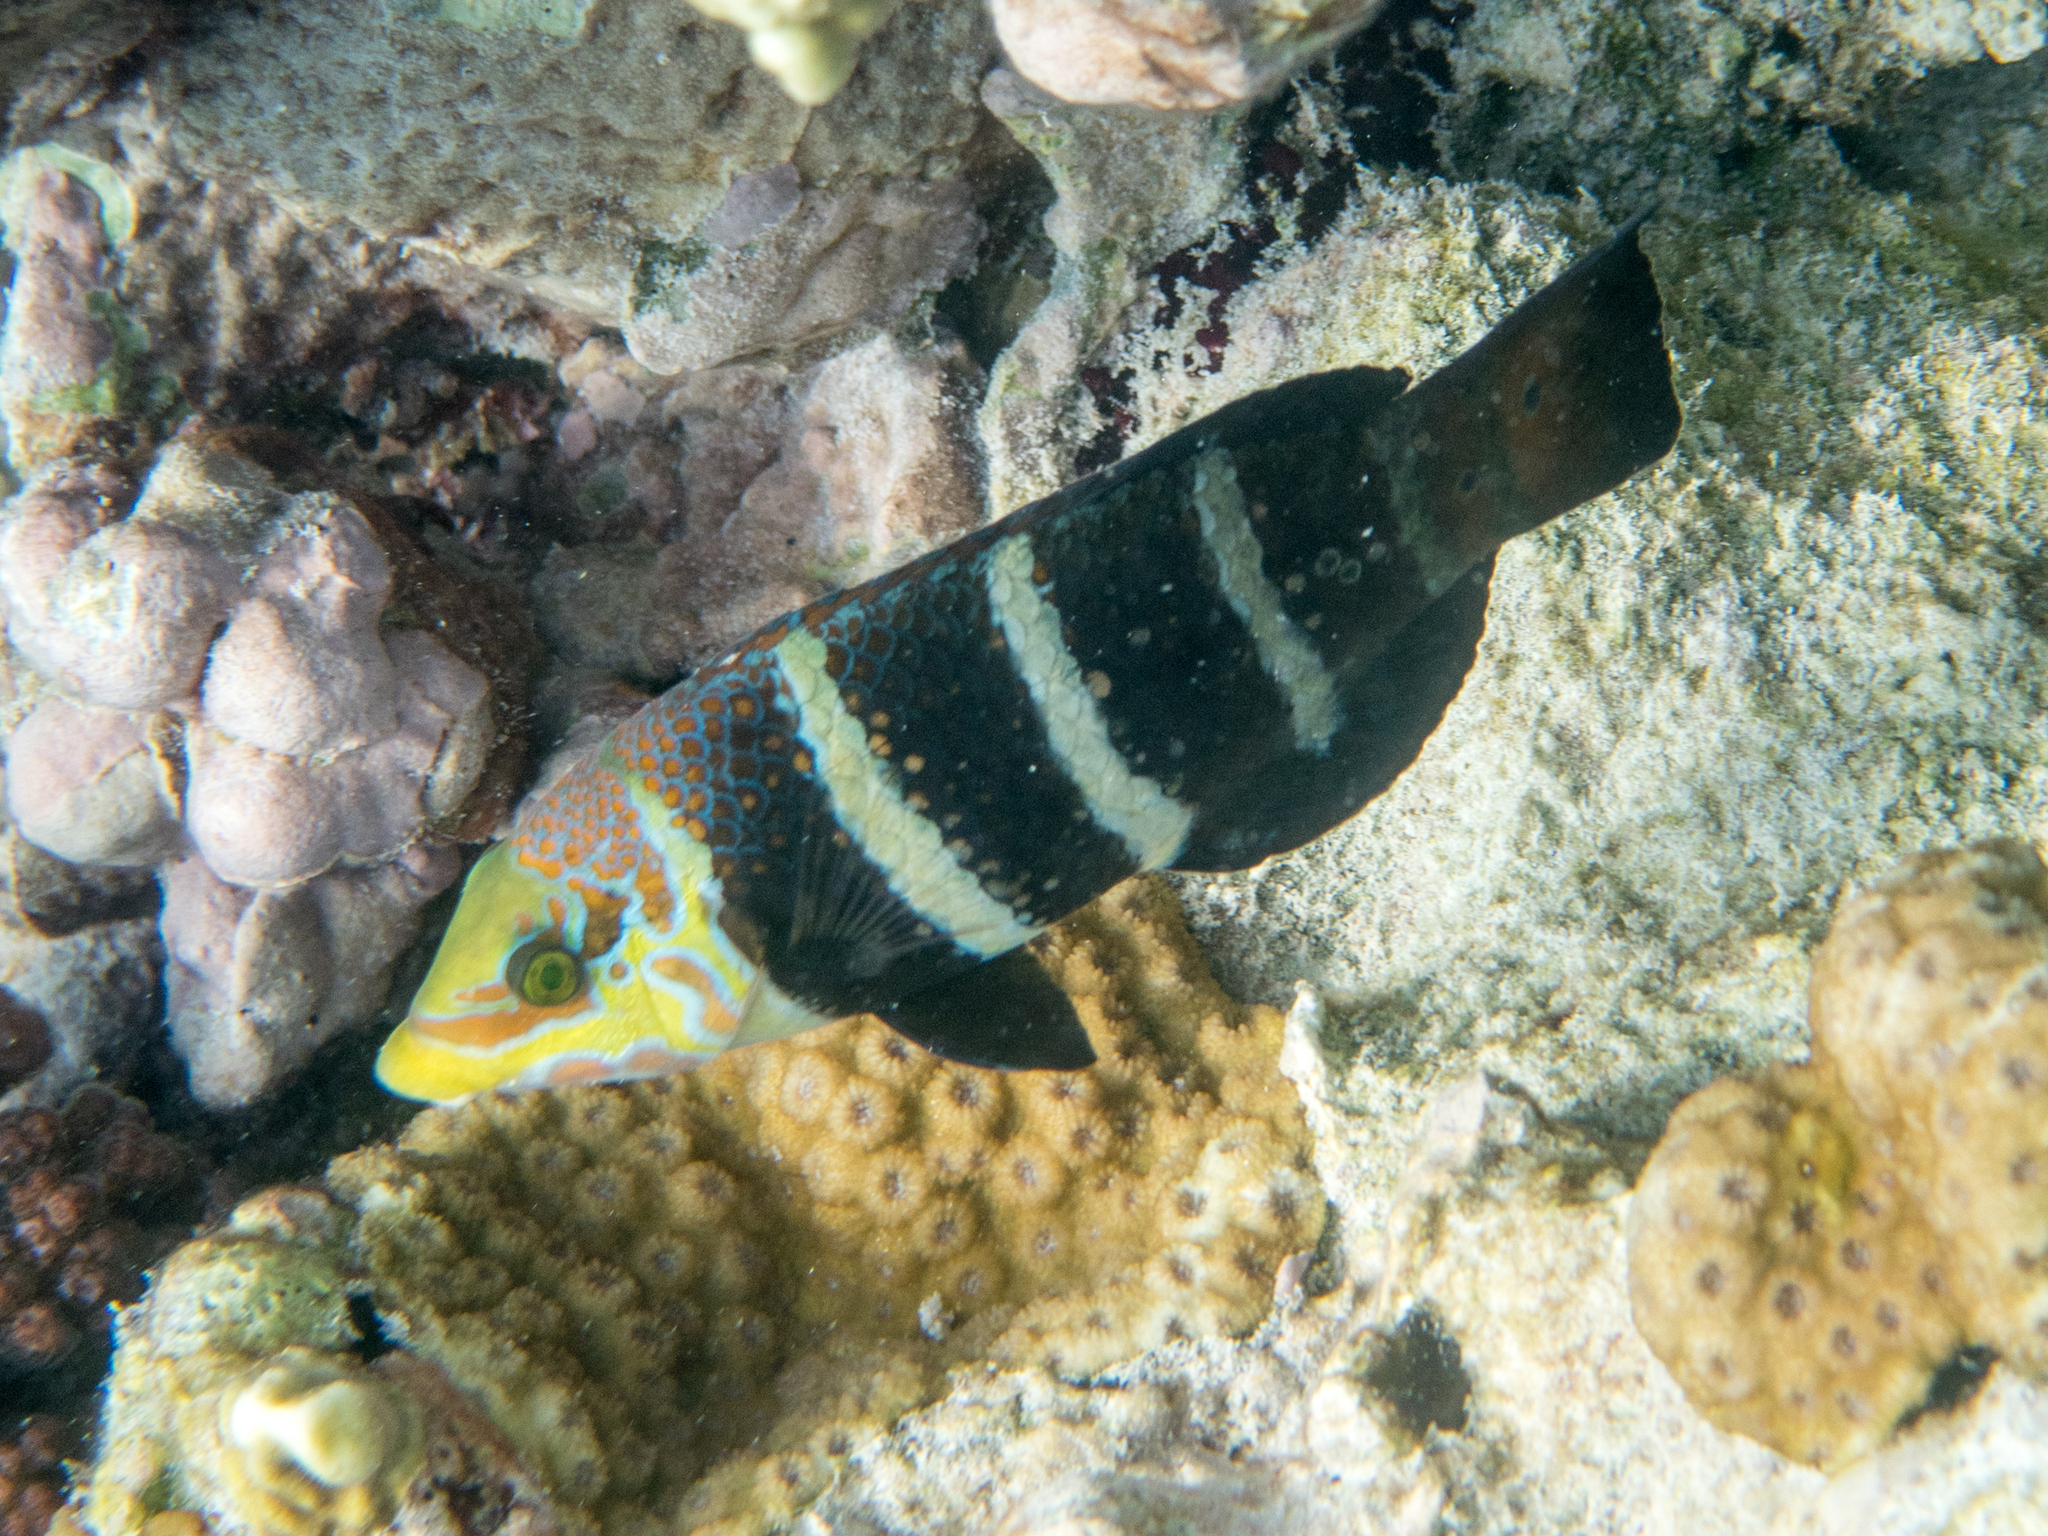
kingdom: Animalia
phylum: Chordata
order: Perciformes
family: Labridae
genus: Hemigymnus
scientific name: Hemigymnus fasciatus
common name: Barred thicklip
